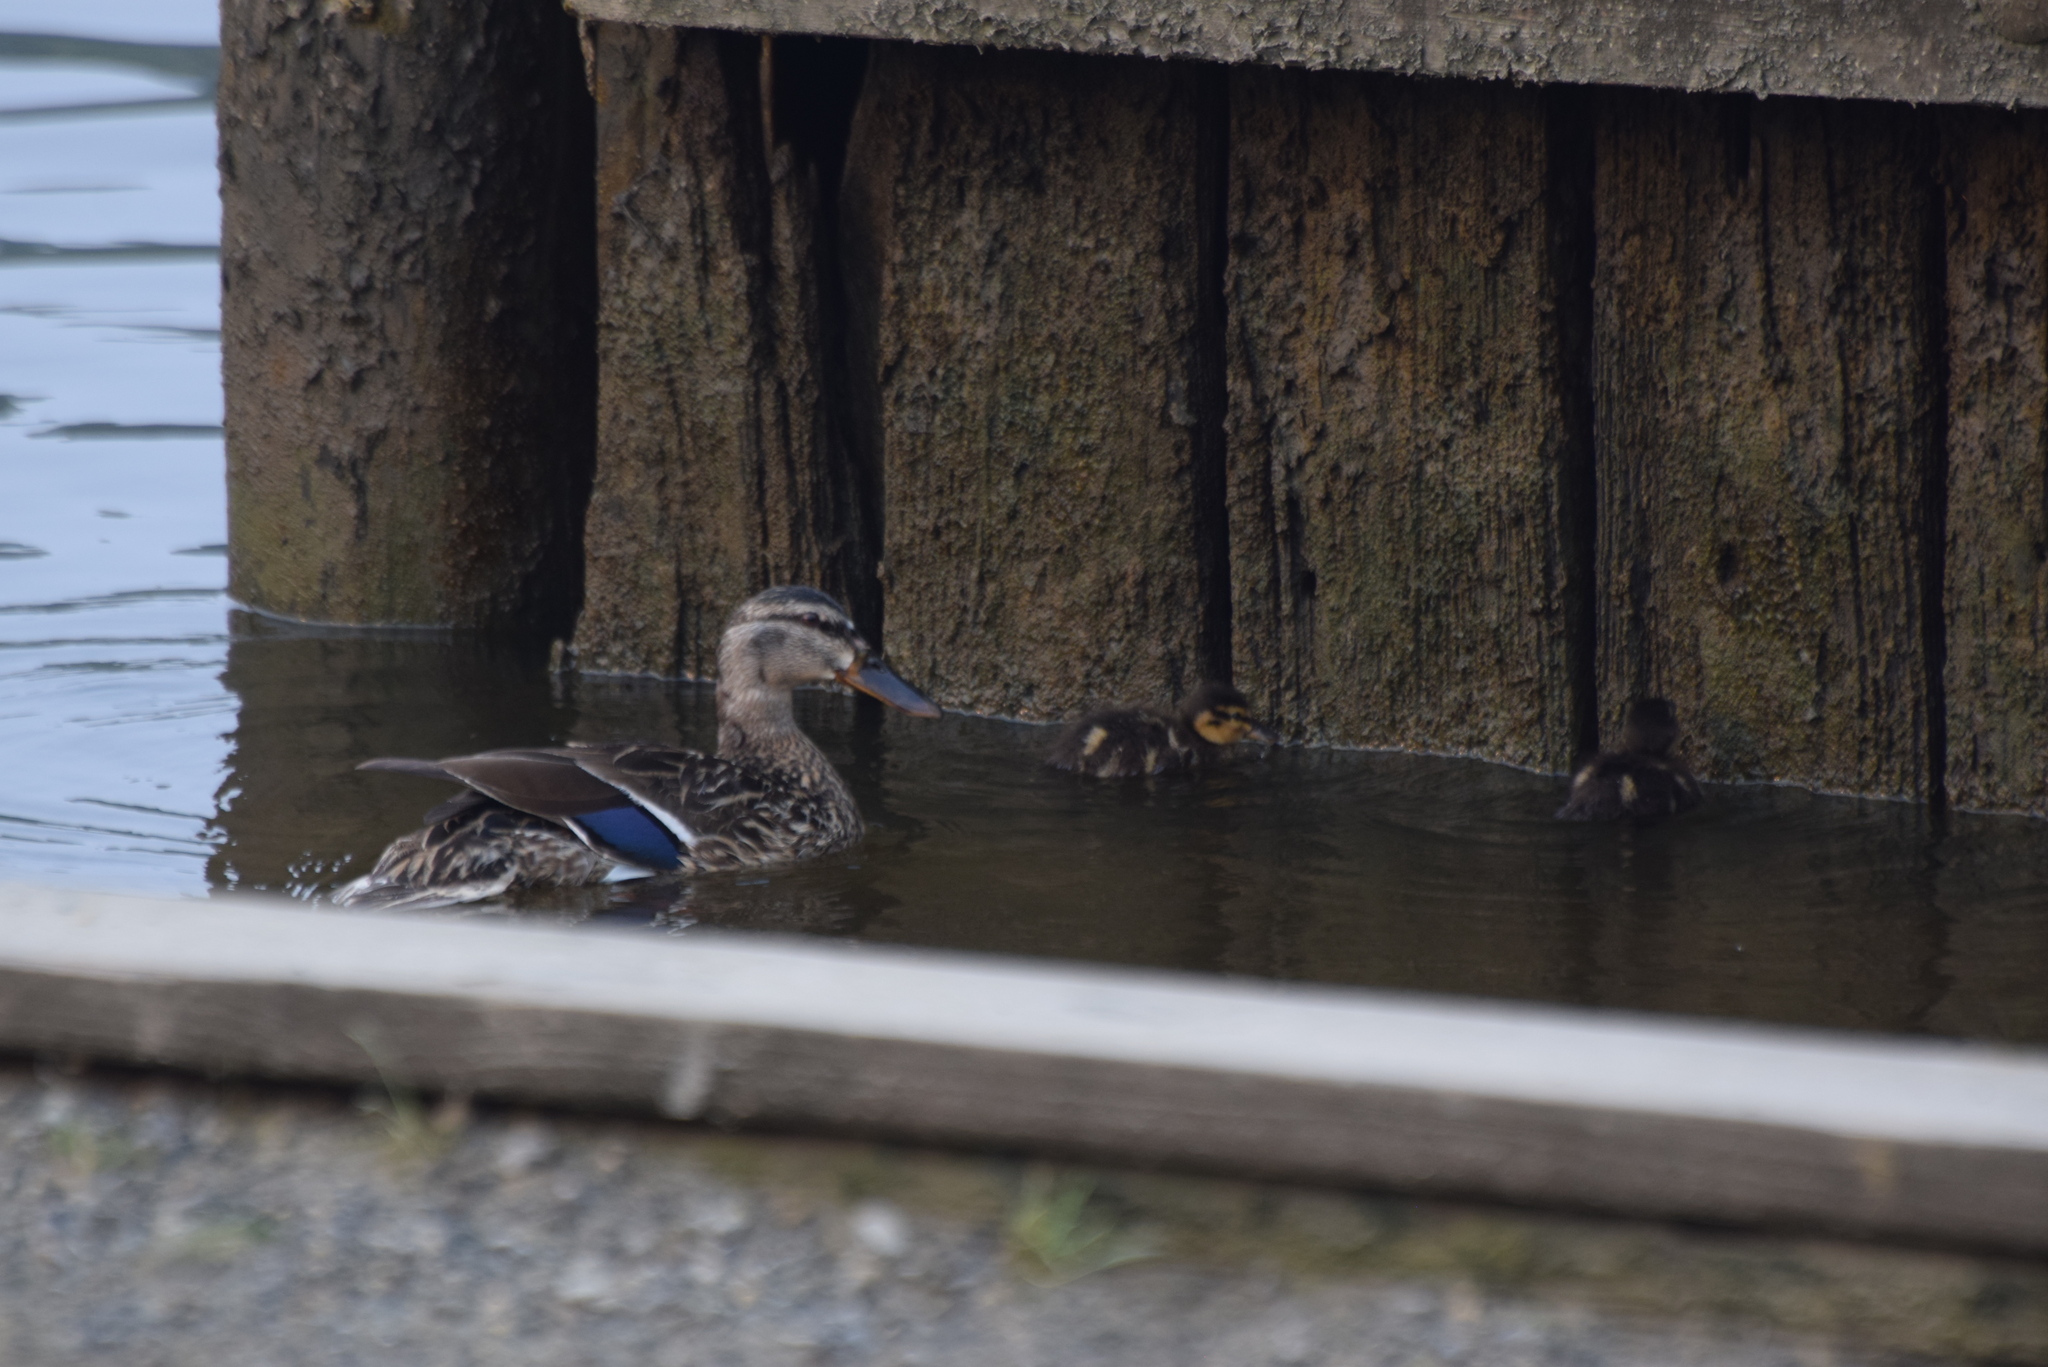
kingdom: Animalia
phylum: Chordata
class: Aves
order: Anseriformes
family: Anatidae
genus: Anas
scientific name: Anas platyrhynchos
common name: Mallard
